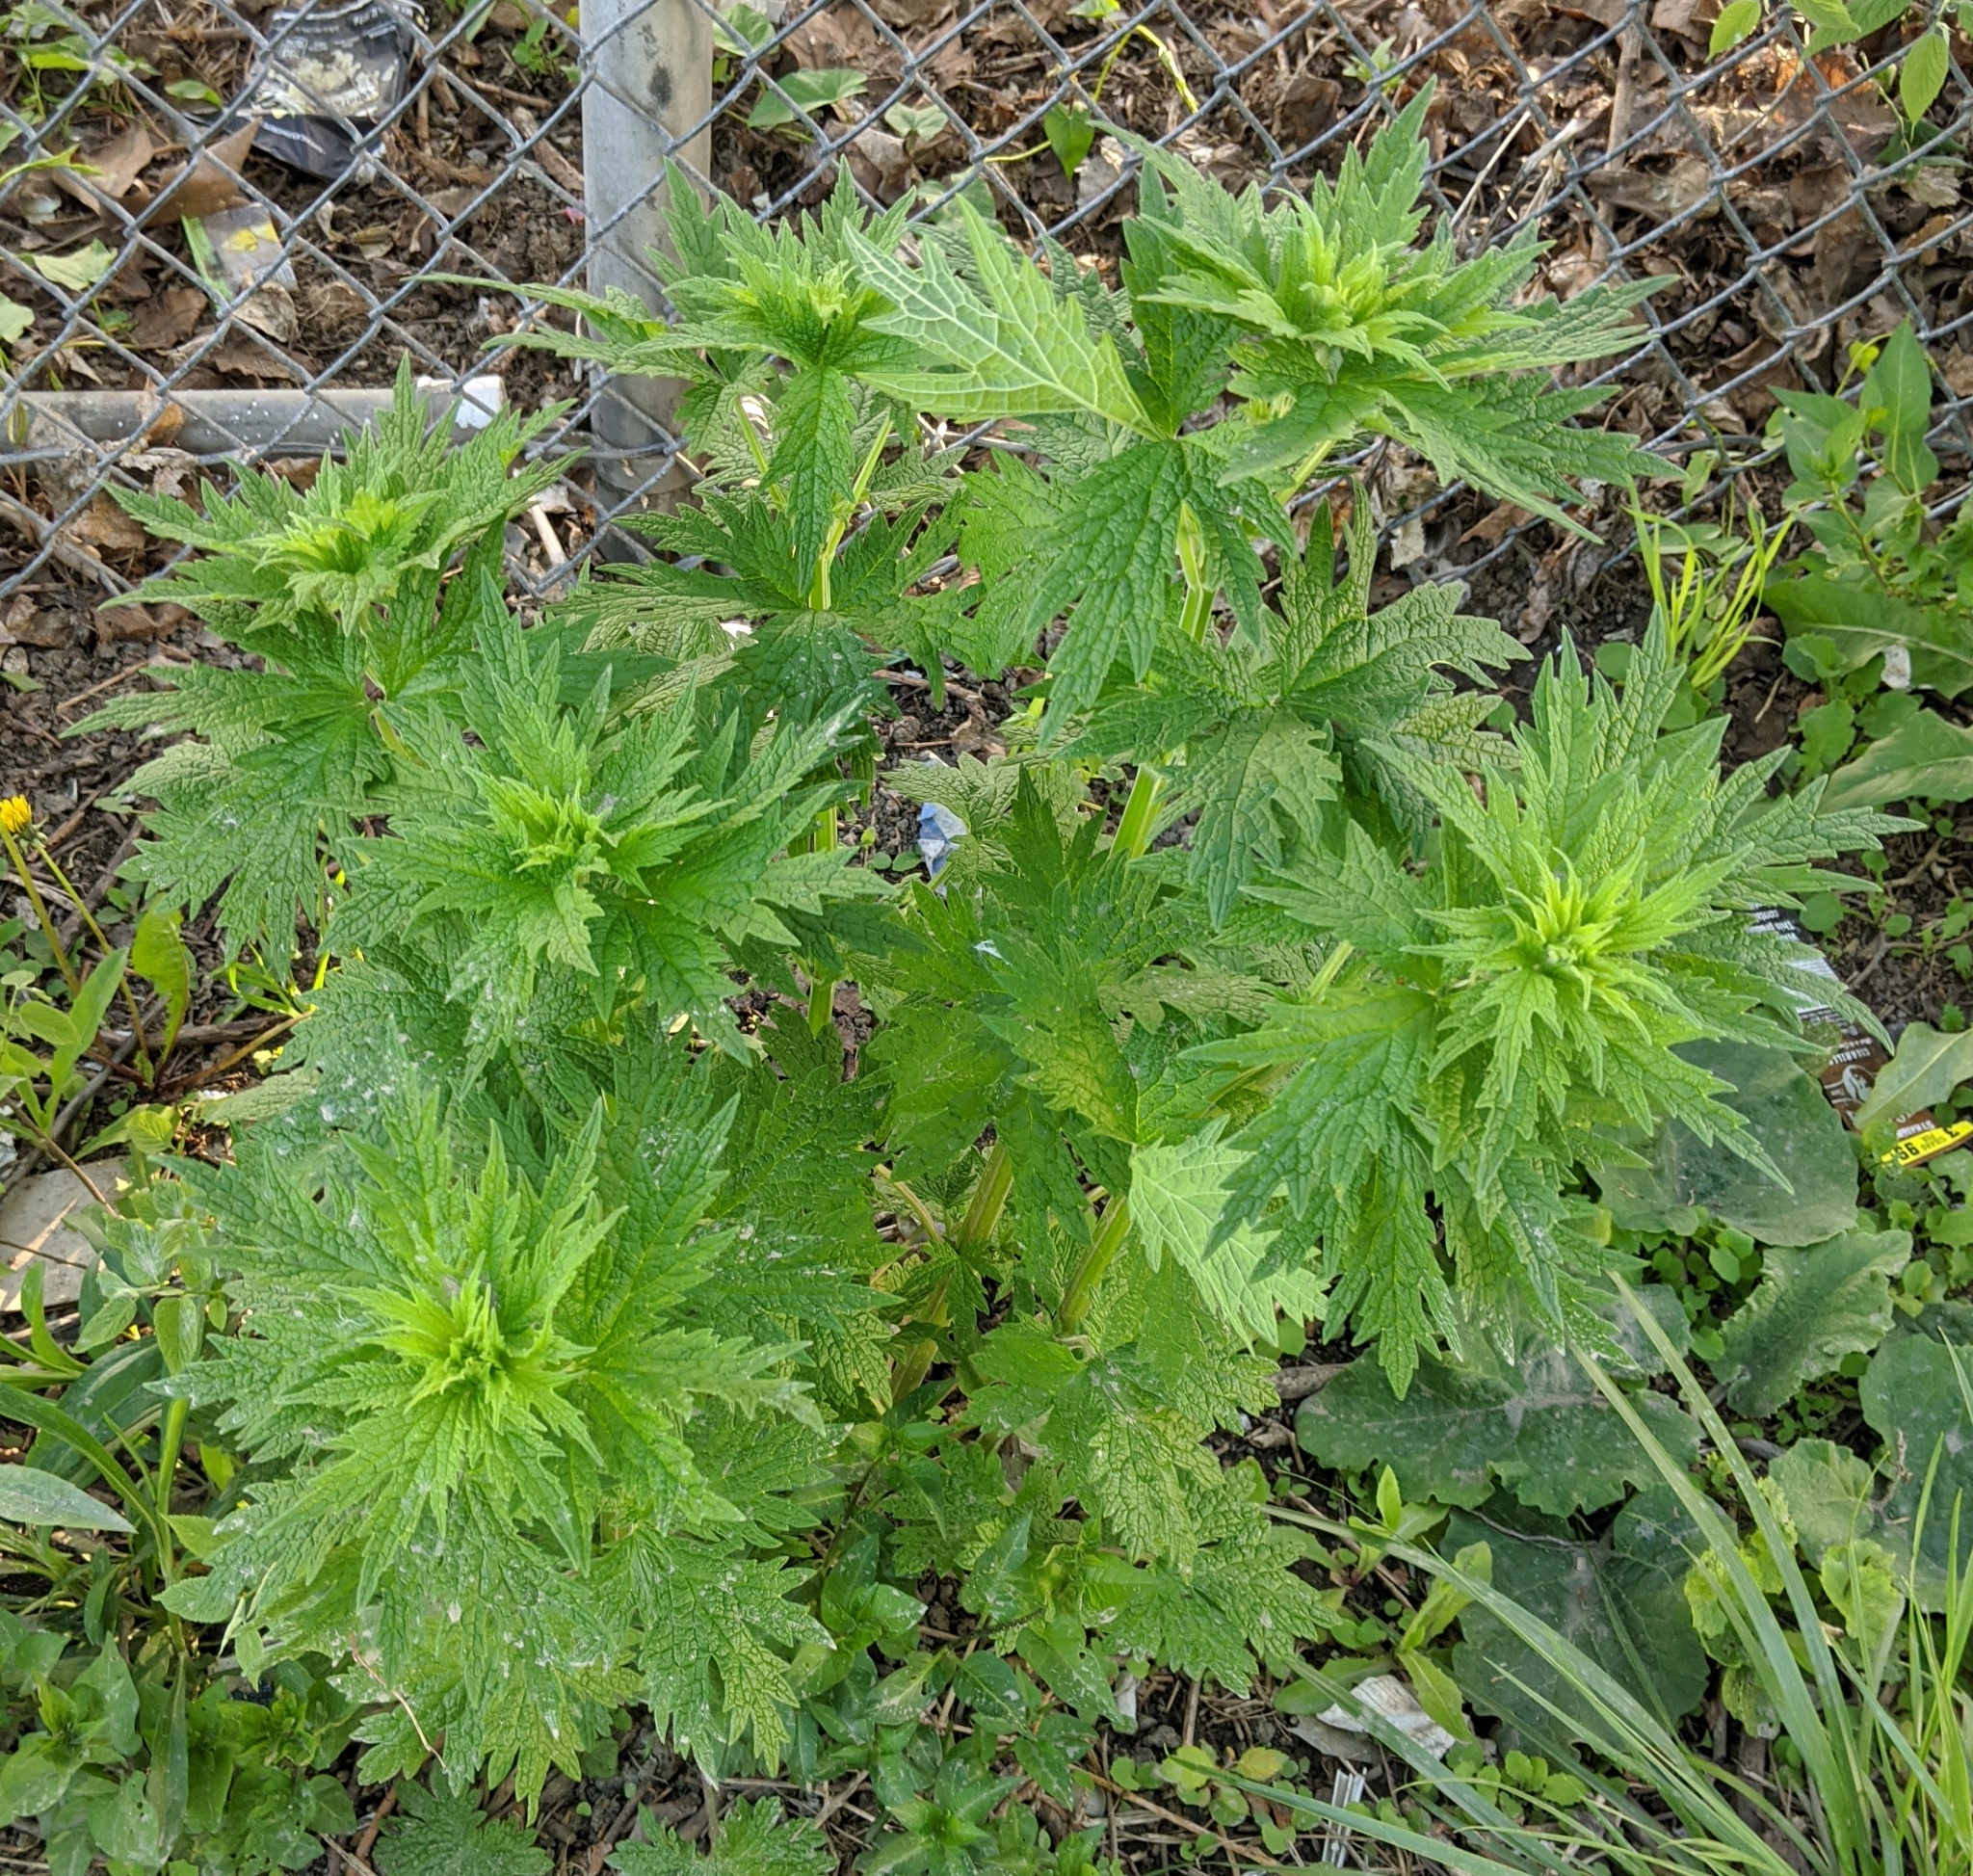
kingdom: Plantae
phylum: Tracheophyta
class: Magnoliopsida
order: Lamiales
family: Lamiaceae
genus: Leonurus
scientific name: Leonurus cardiaca
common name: Motherwort
